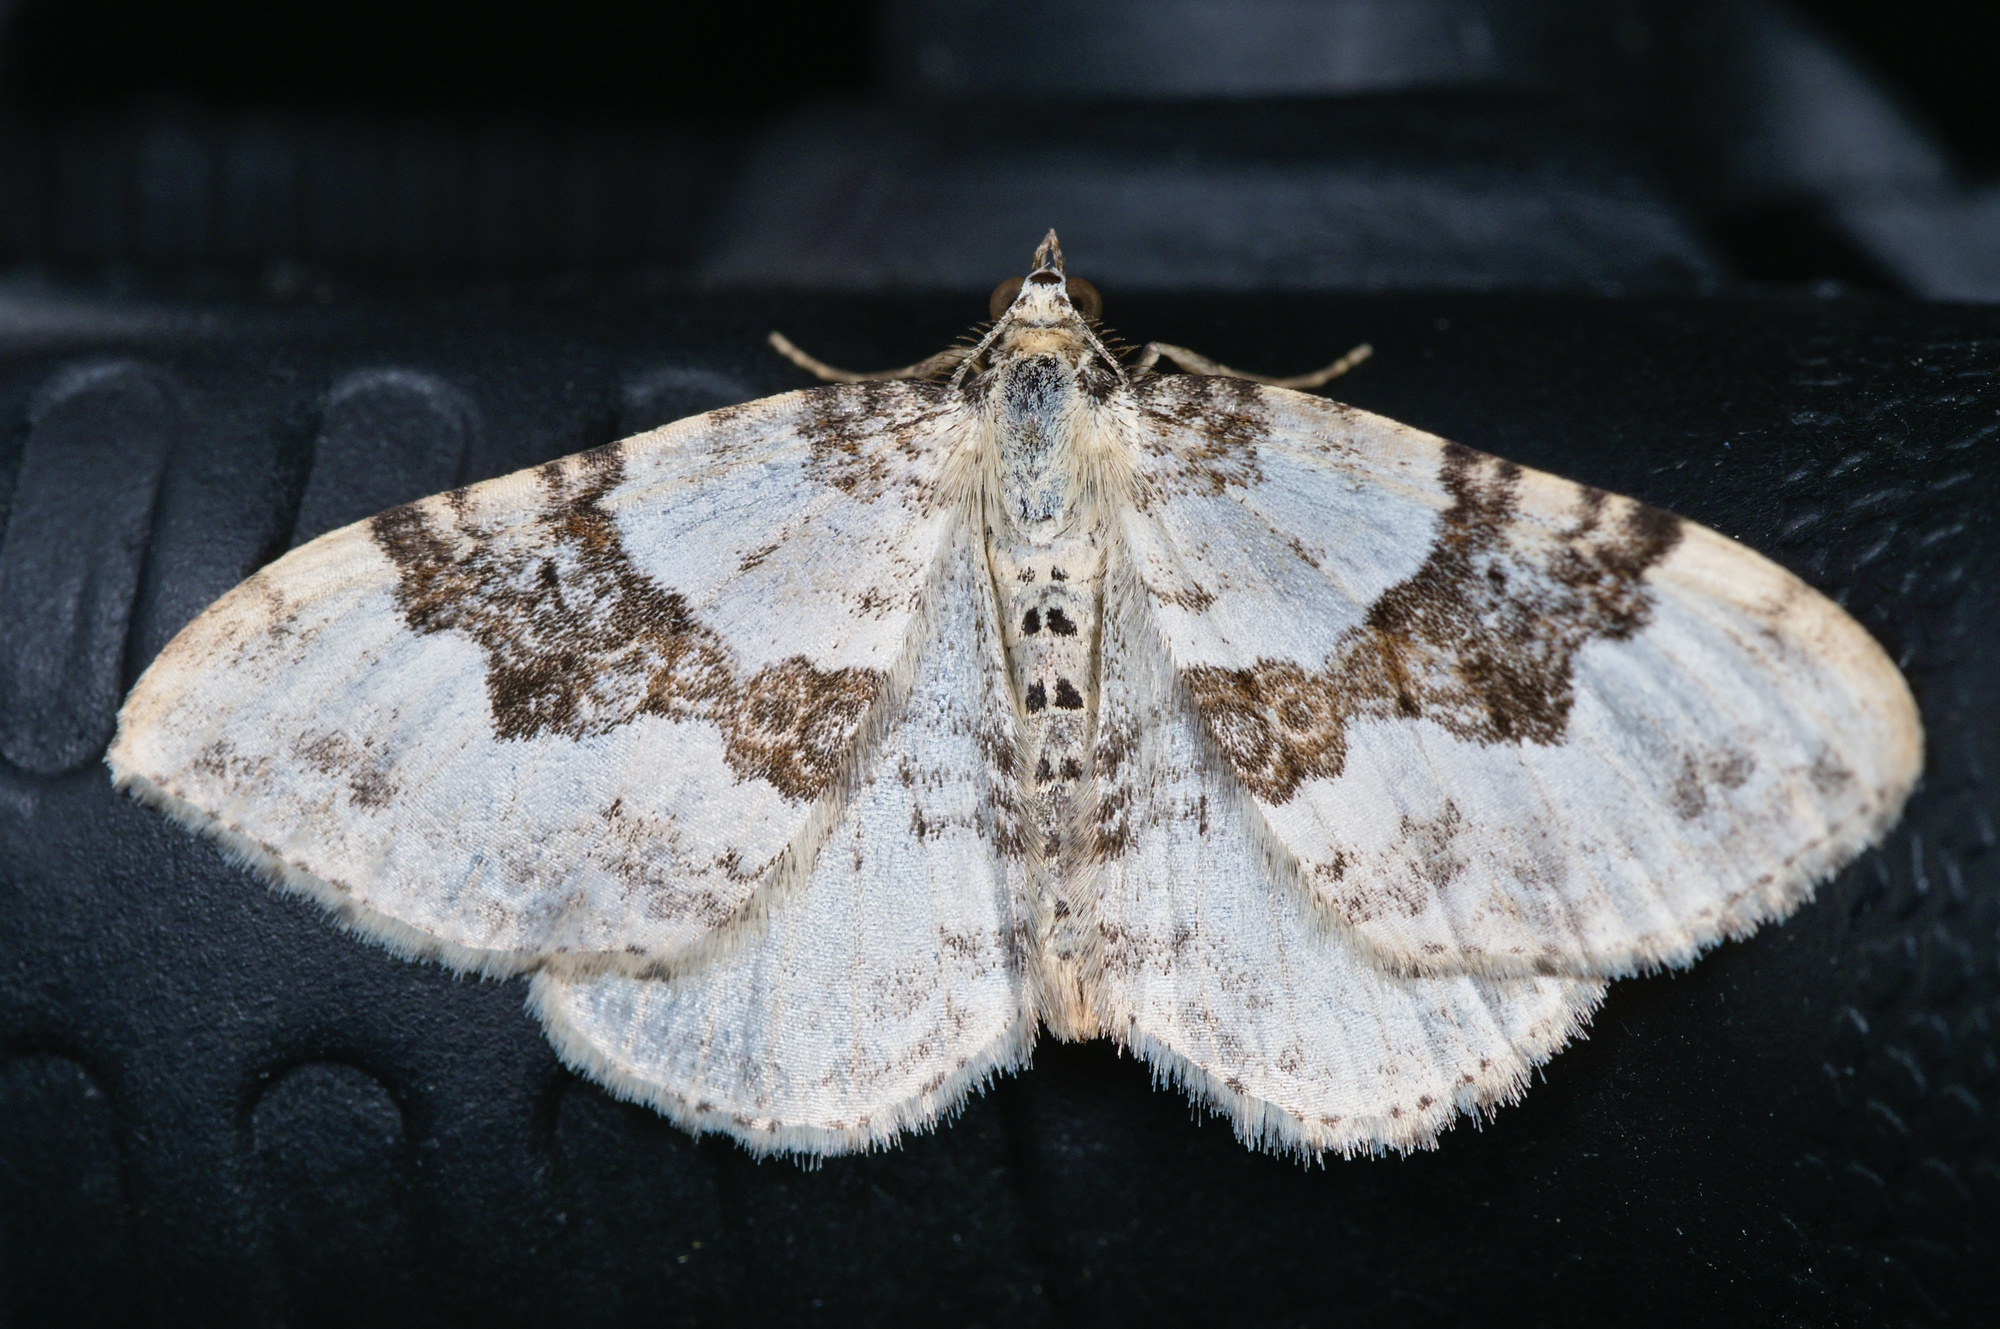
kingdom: Animalia
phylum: Arthropoda
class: Insecta
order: Lepidoptera
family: Geometridae
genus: Xanthorhoe
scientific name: Xanthorhoe montanata
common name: Silver-ground carpet
